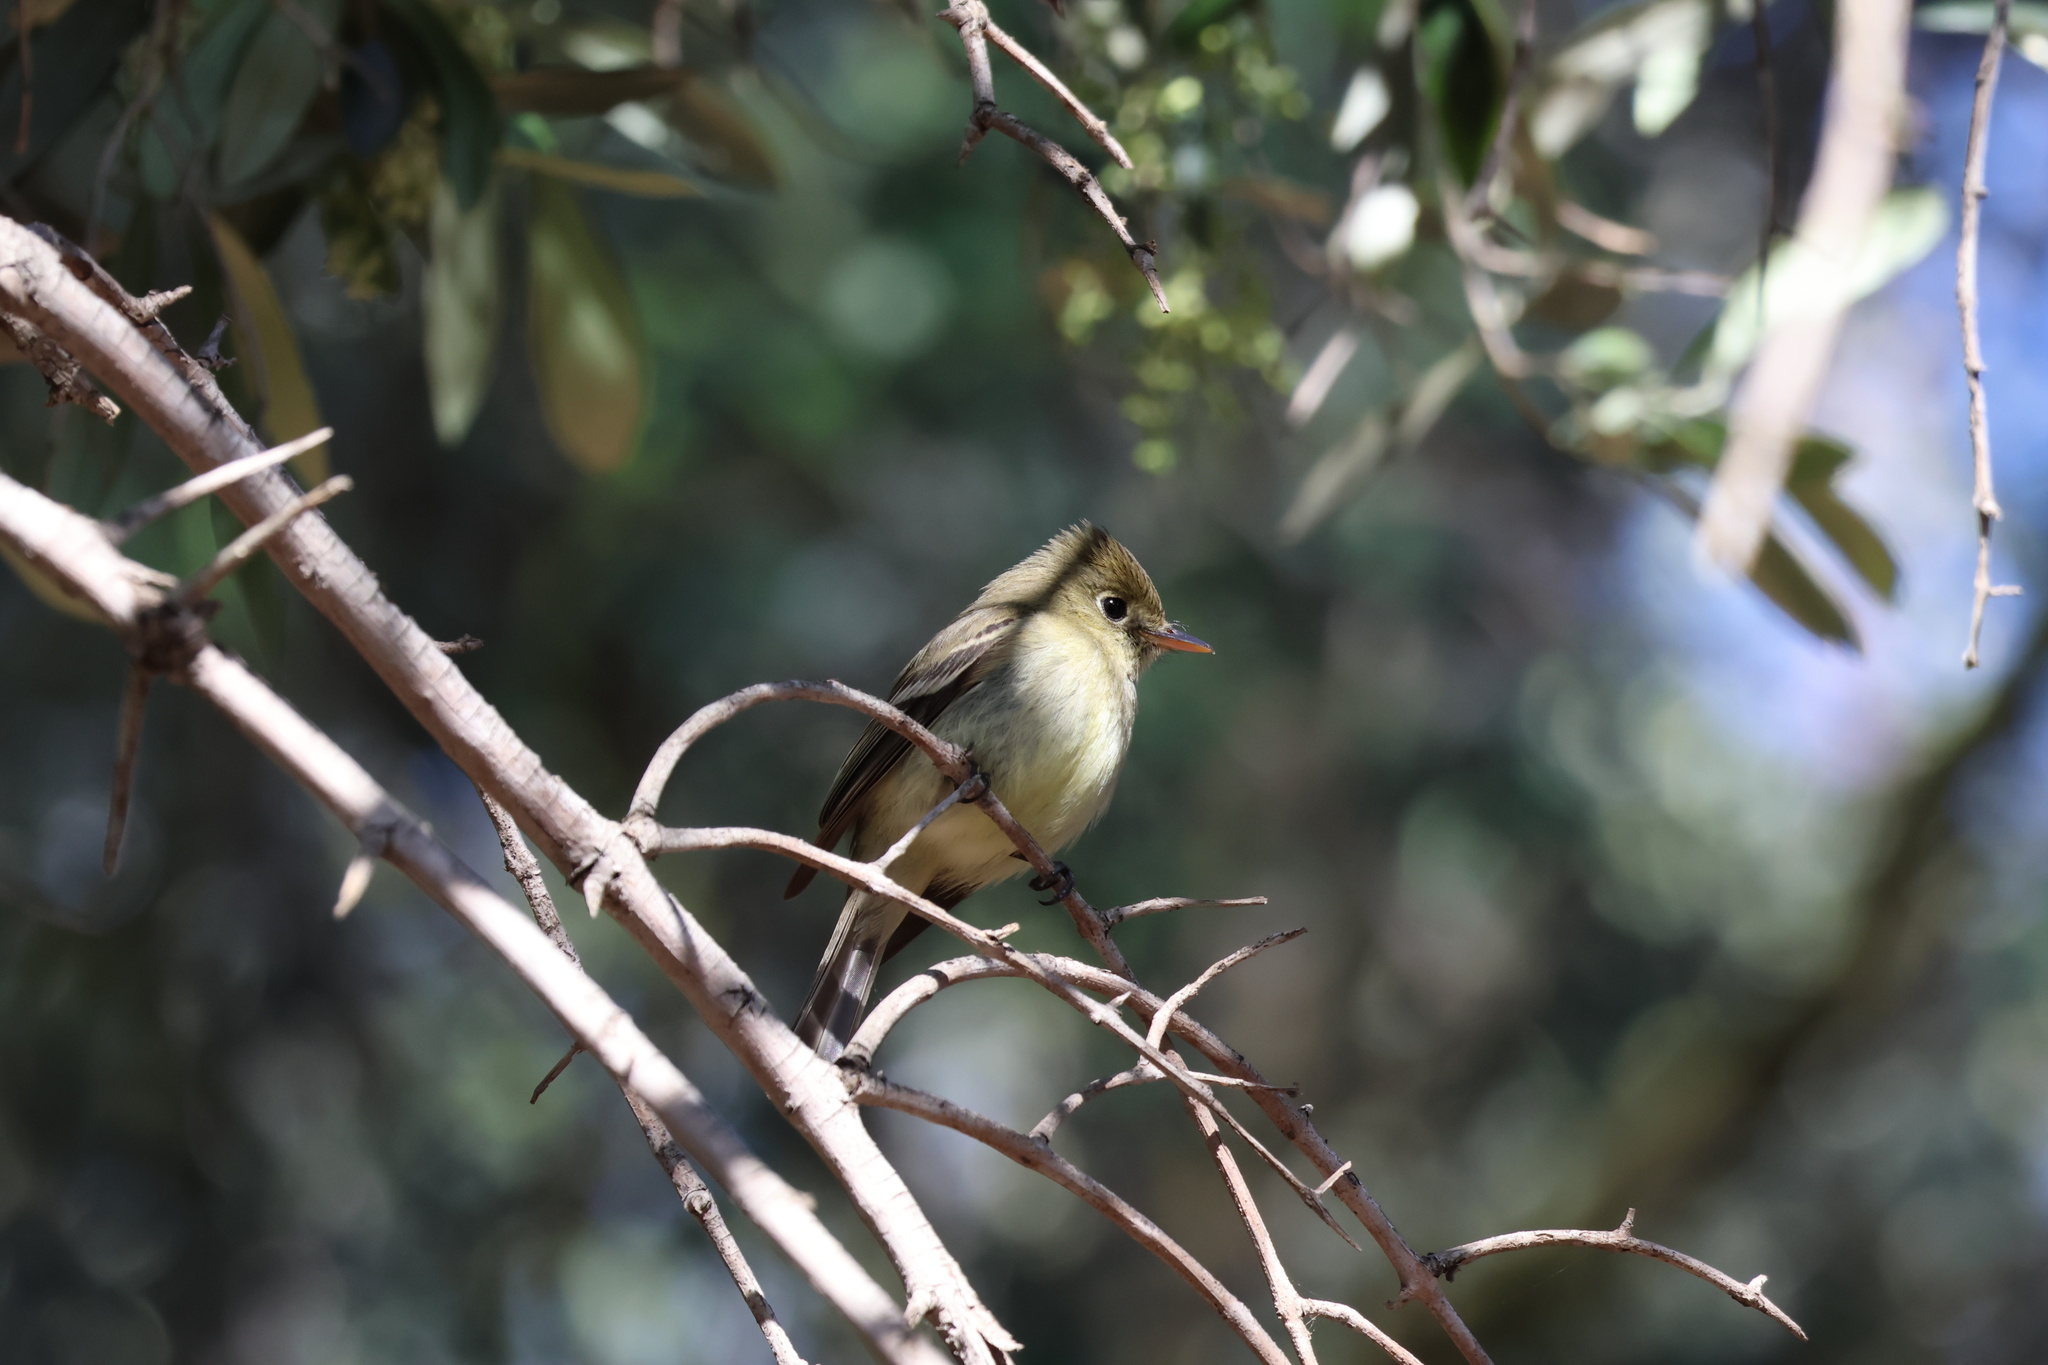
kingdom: Animalia
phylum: Chordata
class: Aves
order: Passeriformes
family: Tyrannidae
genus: Empidonax
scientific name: Empidonax difficilis
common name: Pacific-slope flycatcher
